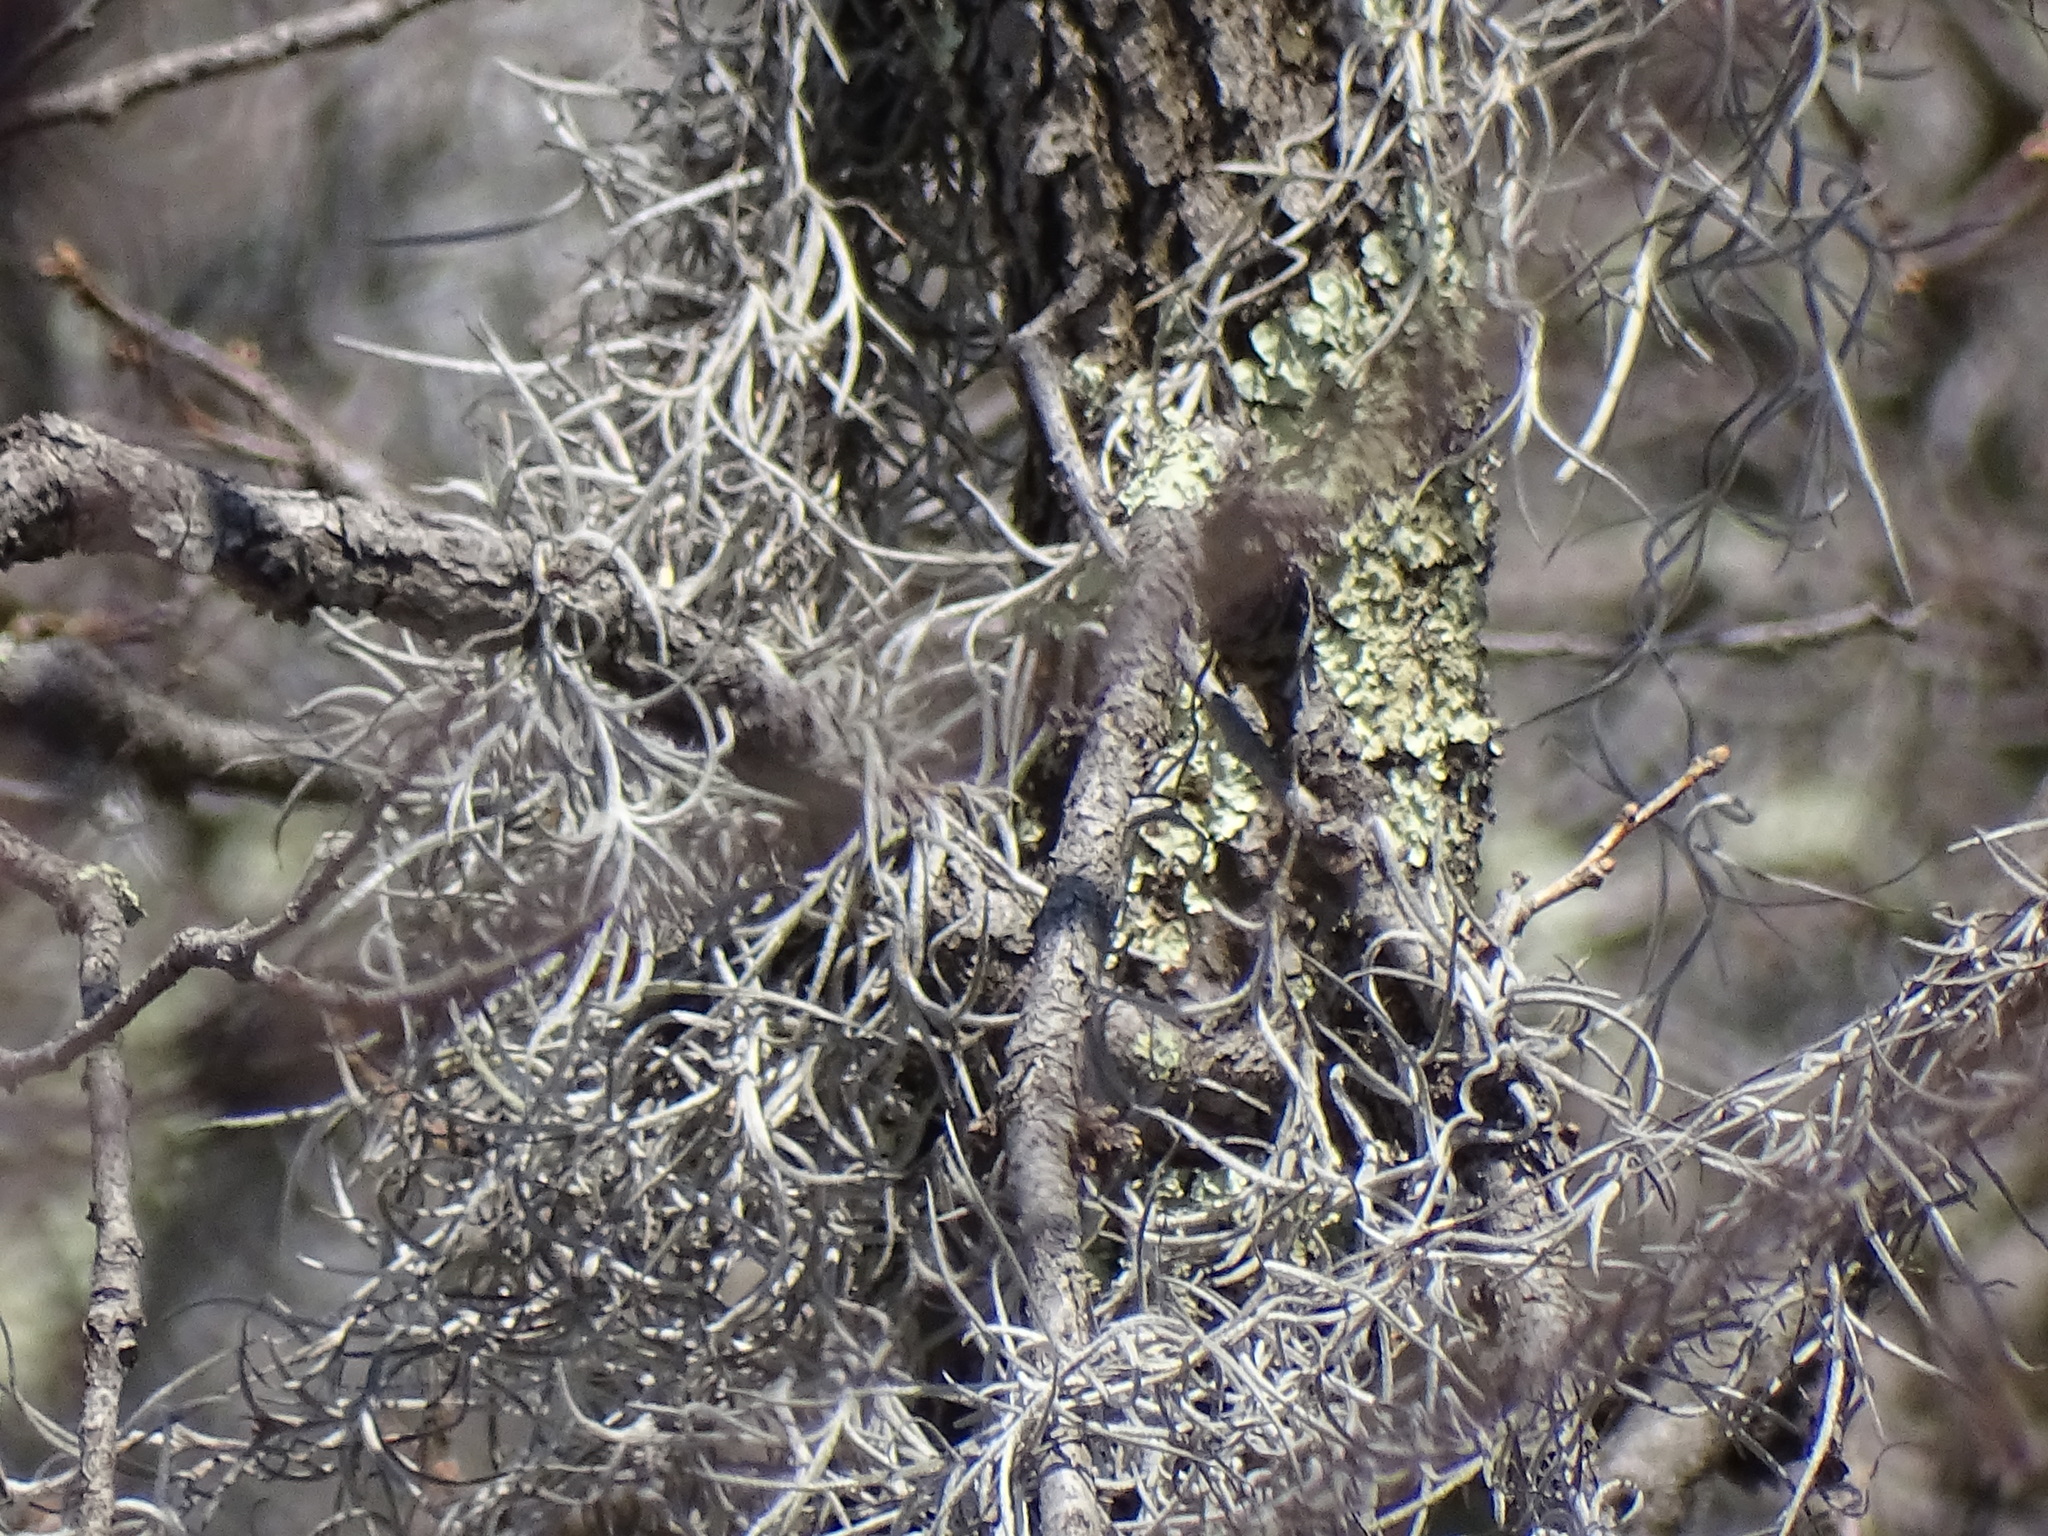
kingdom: Plantae
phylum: Tracheophyta
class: Liliopsida
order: Poales
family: Bromeliaceae
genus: Tillandsia
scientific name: Tillandsia usneoides
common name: Spanish moss
